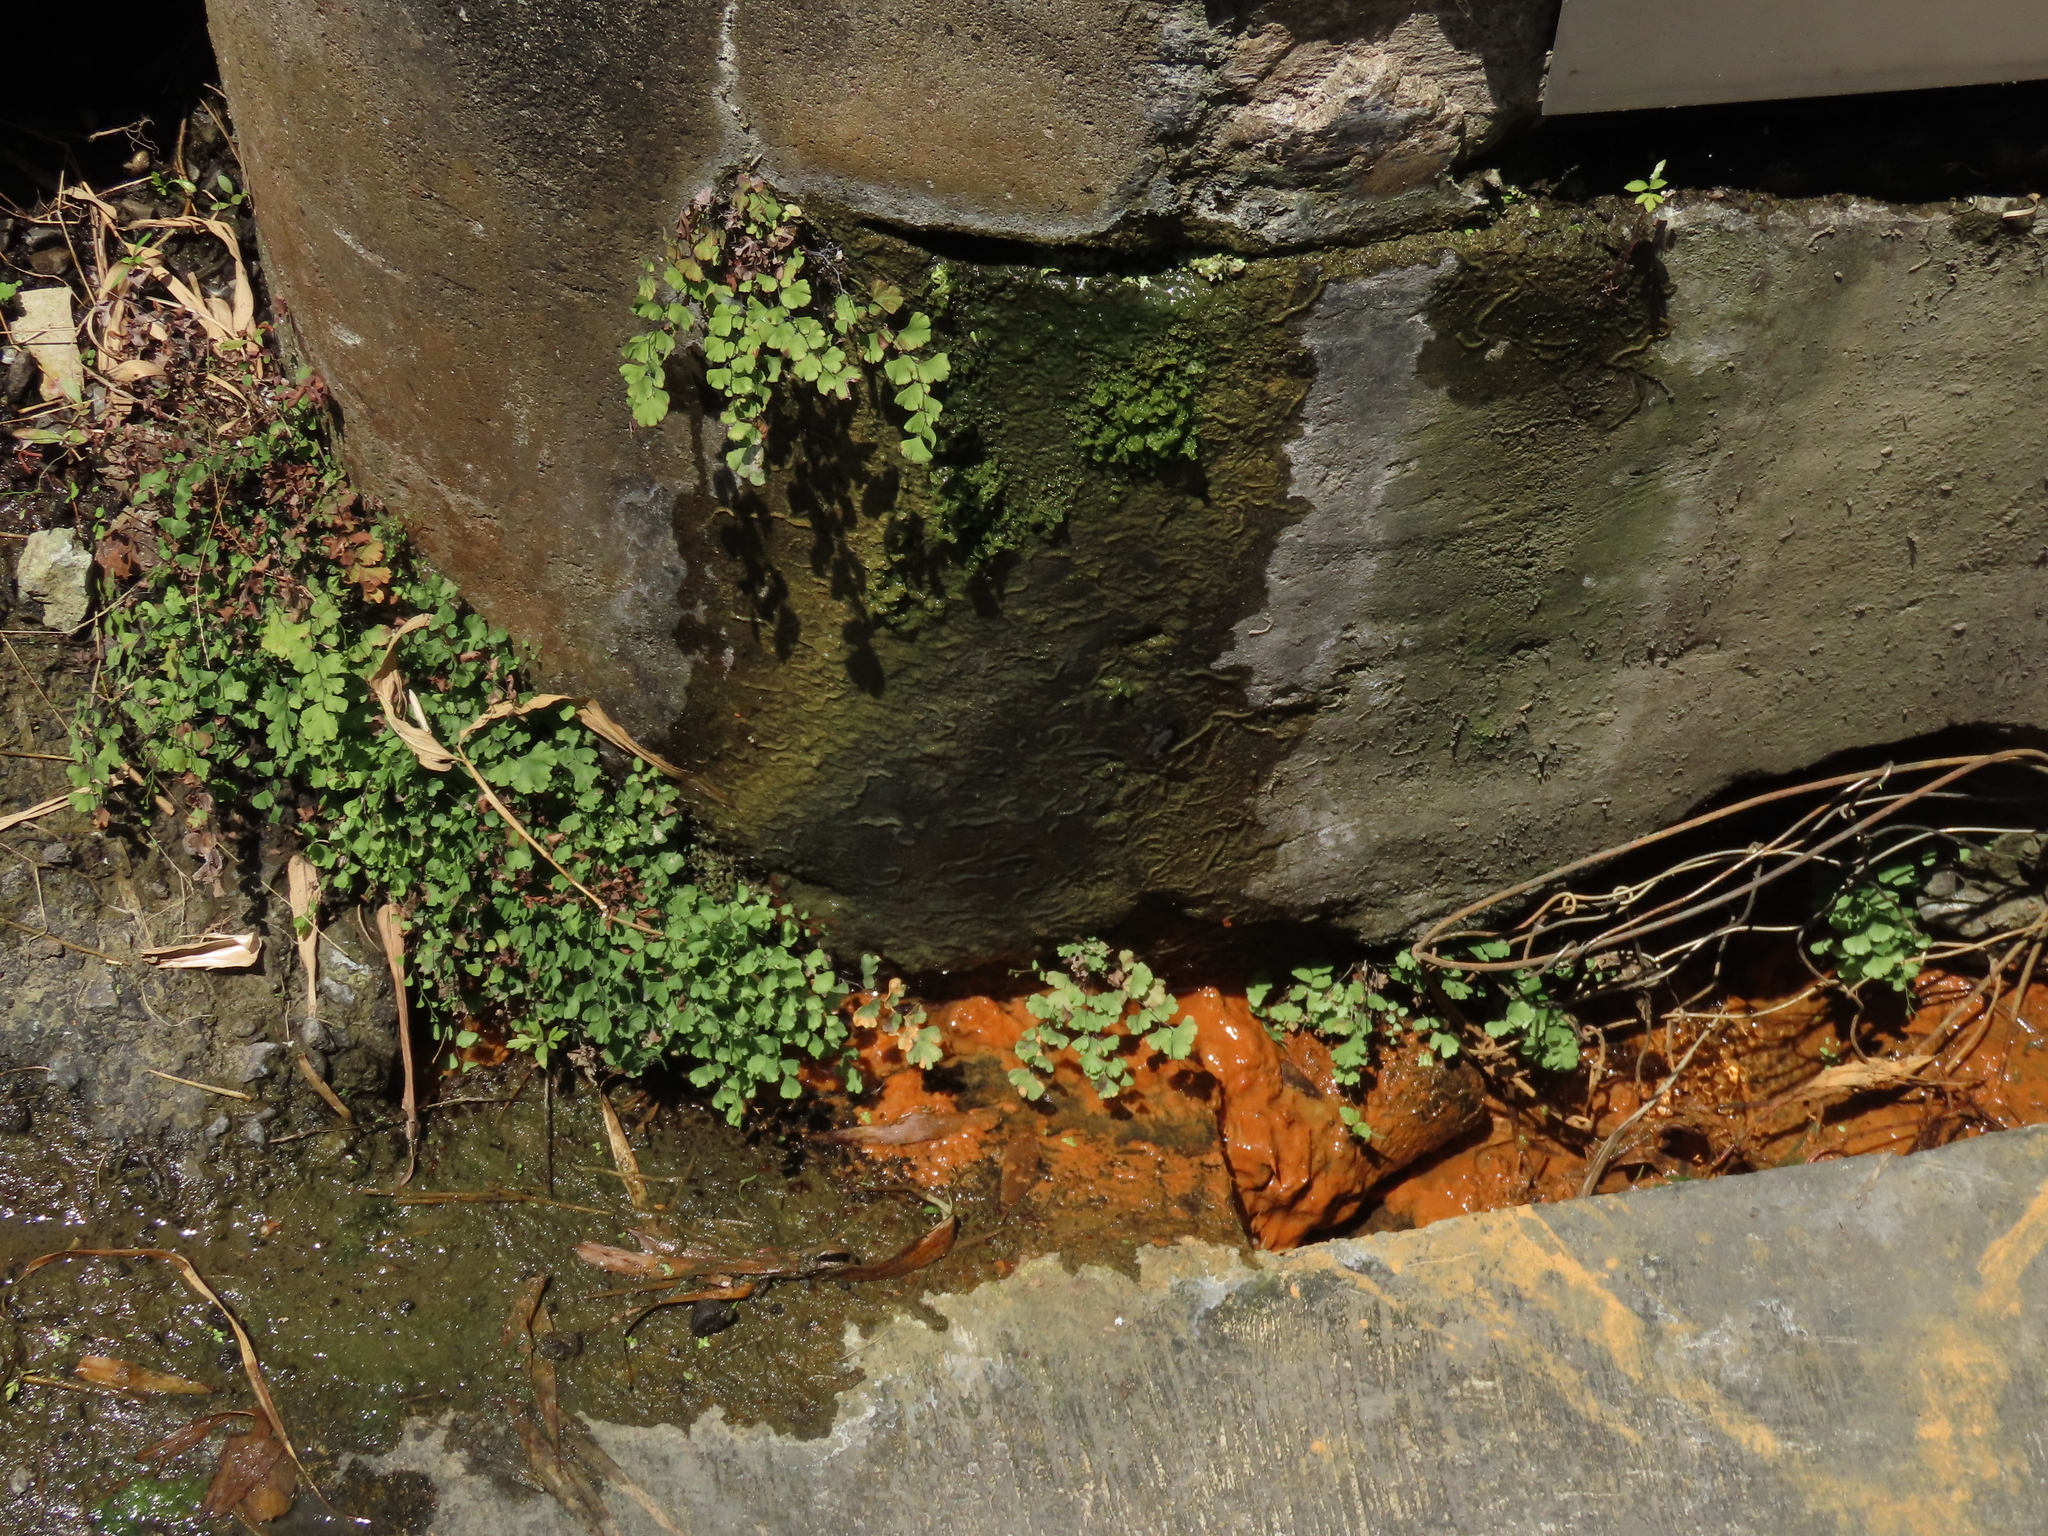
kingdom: Plantae
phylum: Tracheophyta
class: Polypodiopsida
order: Polypodiales
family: Pteridaceae
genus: Adiantum
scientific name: Adiantum capillus-veneris
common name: Maidenhair fern
